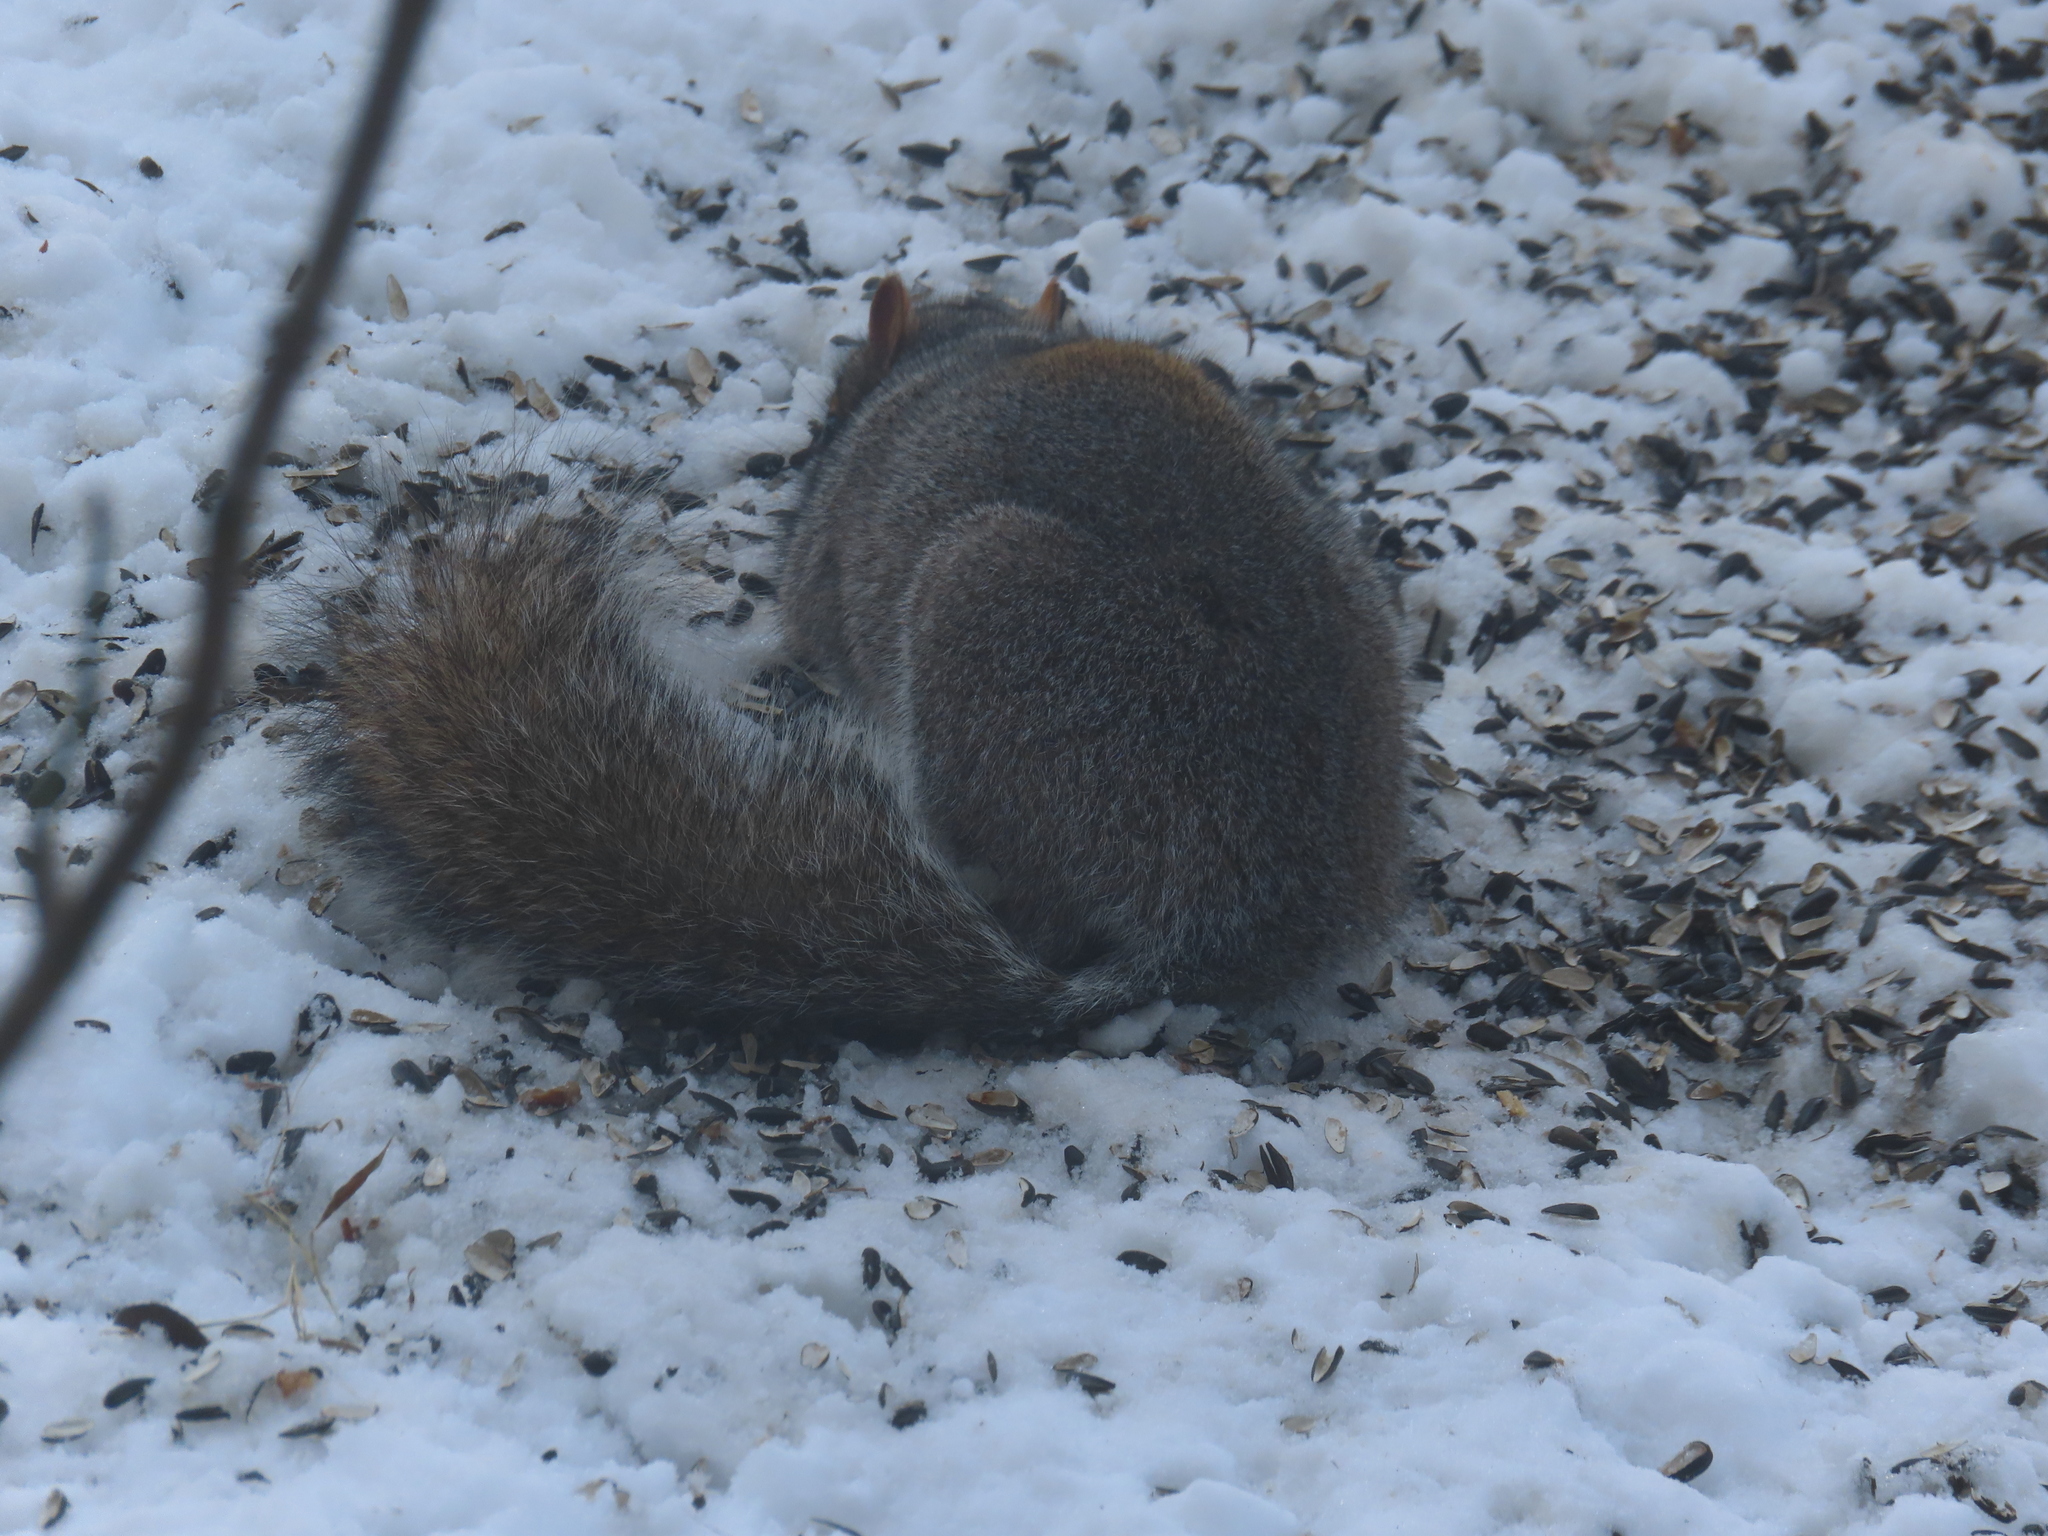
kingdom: Animalia
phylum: Chordata
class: Mammalia
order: Rodentia
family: Sciuridae
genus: Sciurus
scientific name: Sciurus carolinensis
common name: Eastern gray squirrel
